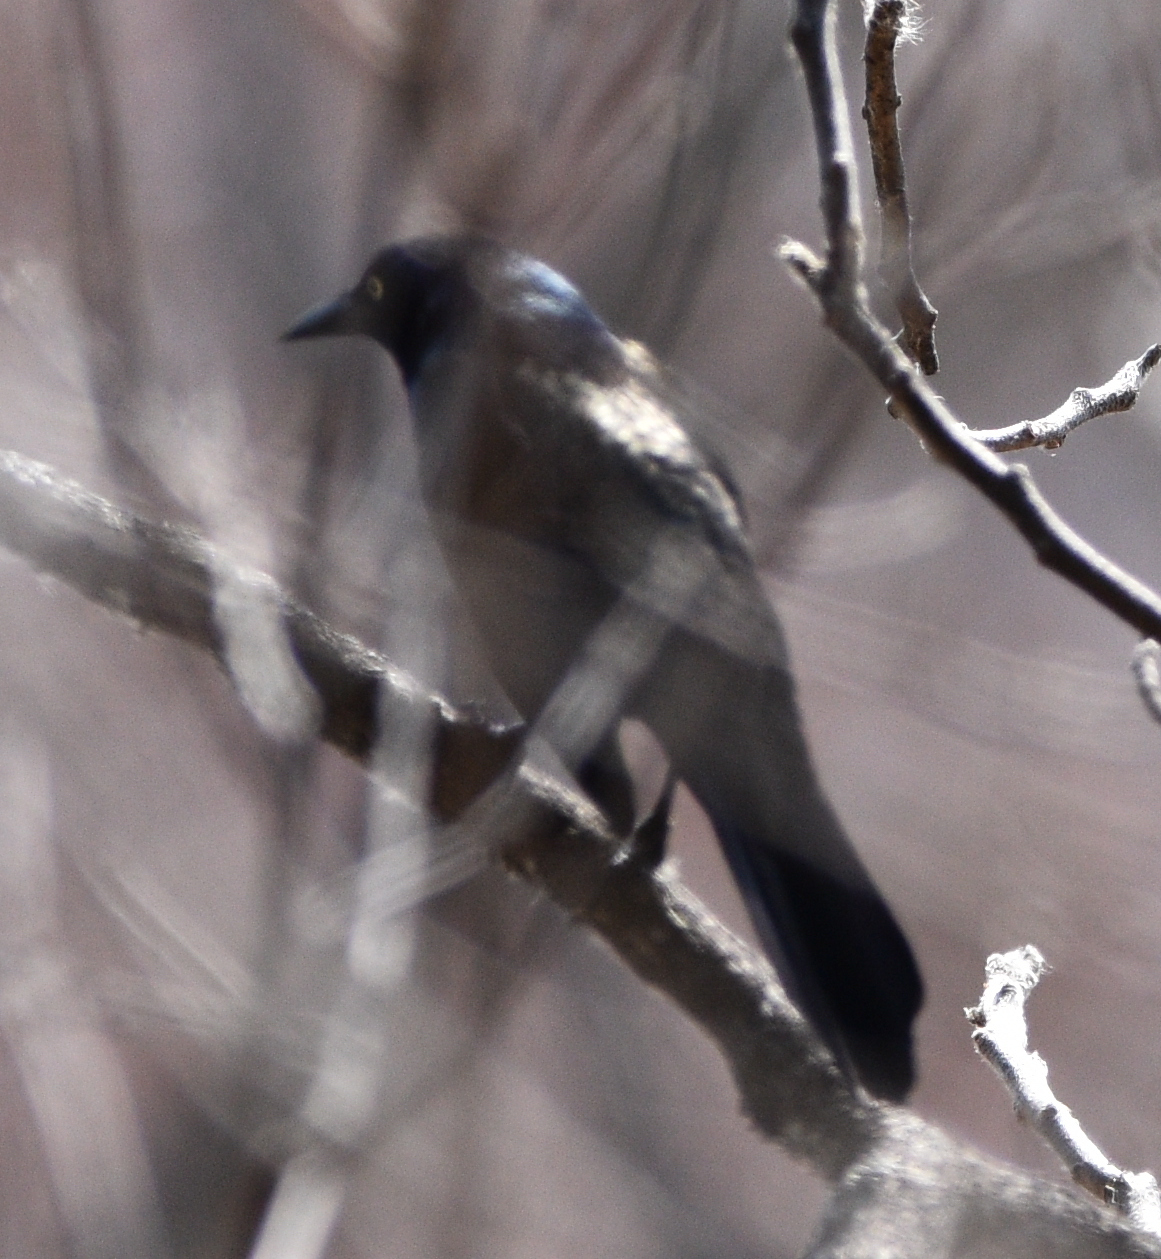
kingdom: Animalia
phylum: Chordata
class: Aves
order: Passeriformes
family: Icteridae
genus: Quiscalus
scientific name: Quiscalus quiscula
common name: Common grackle
